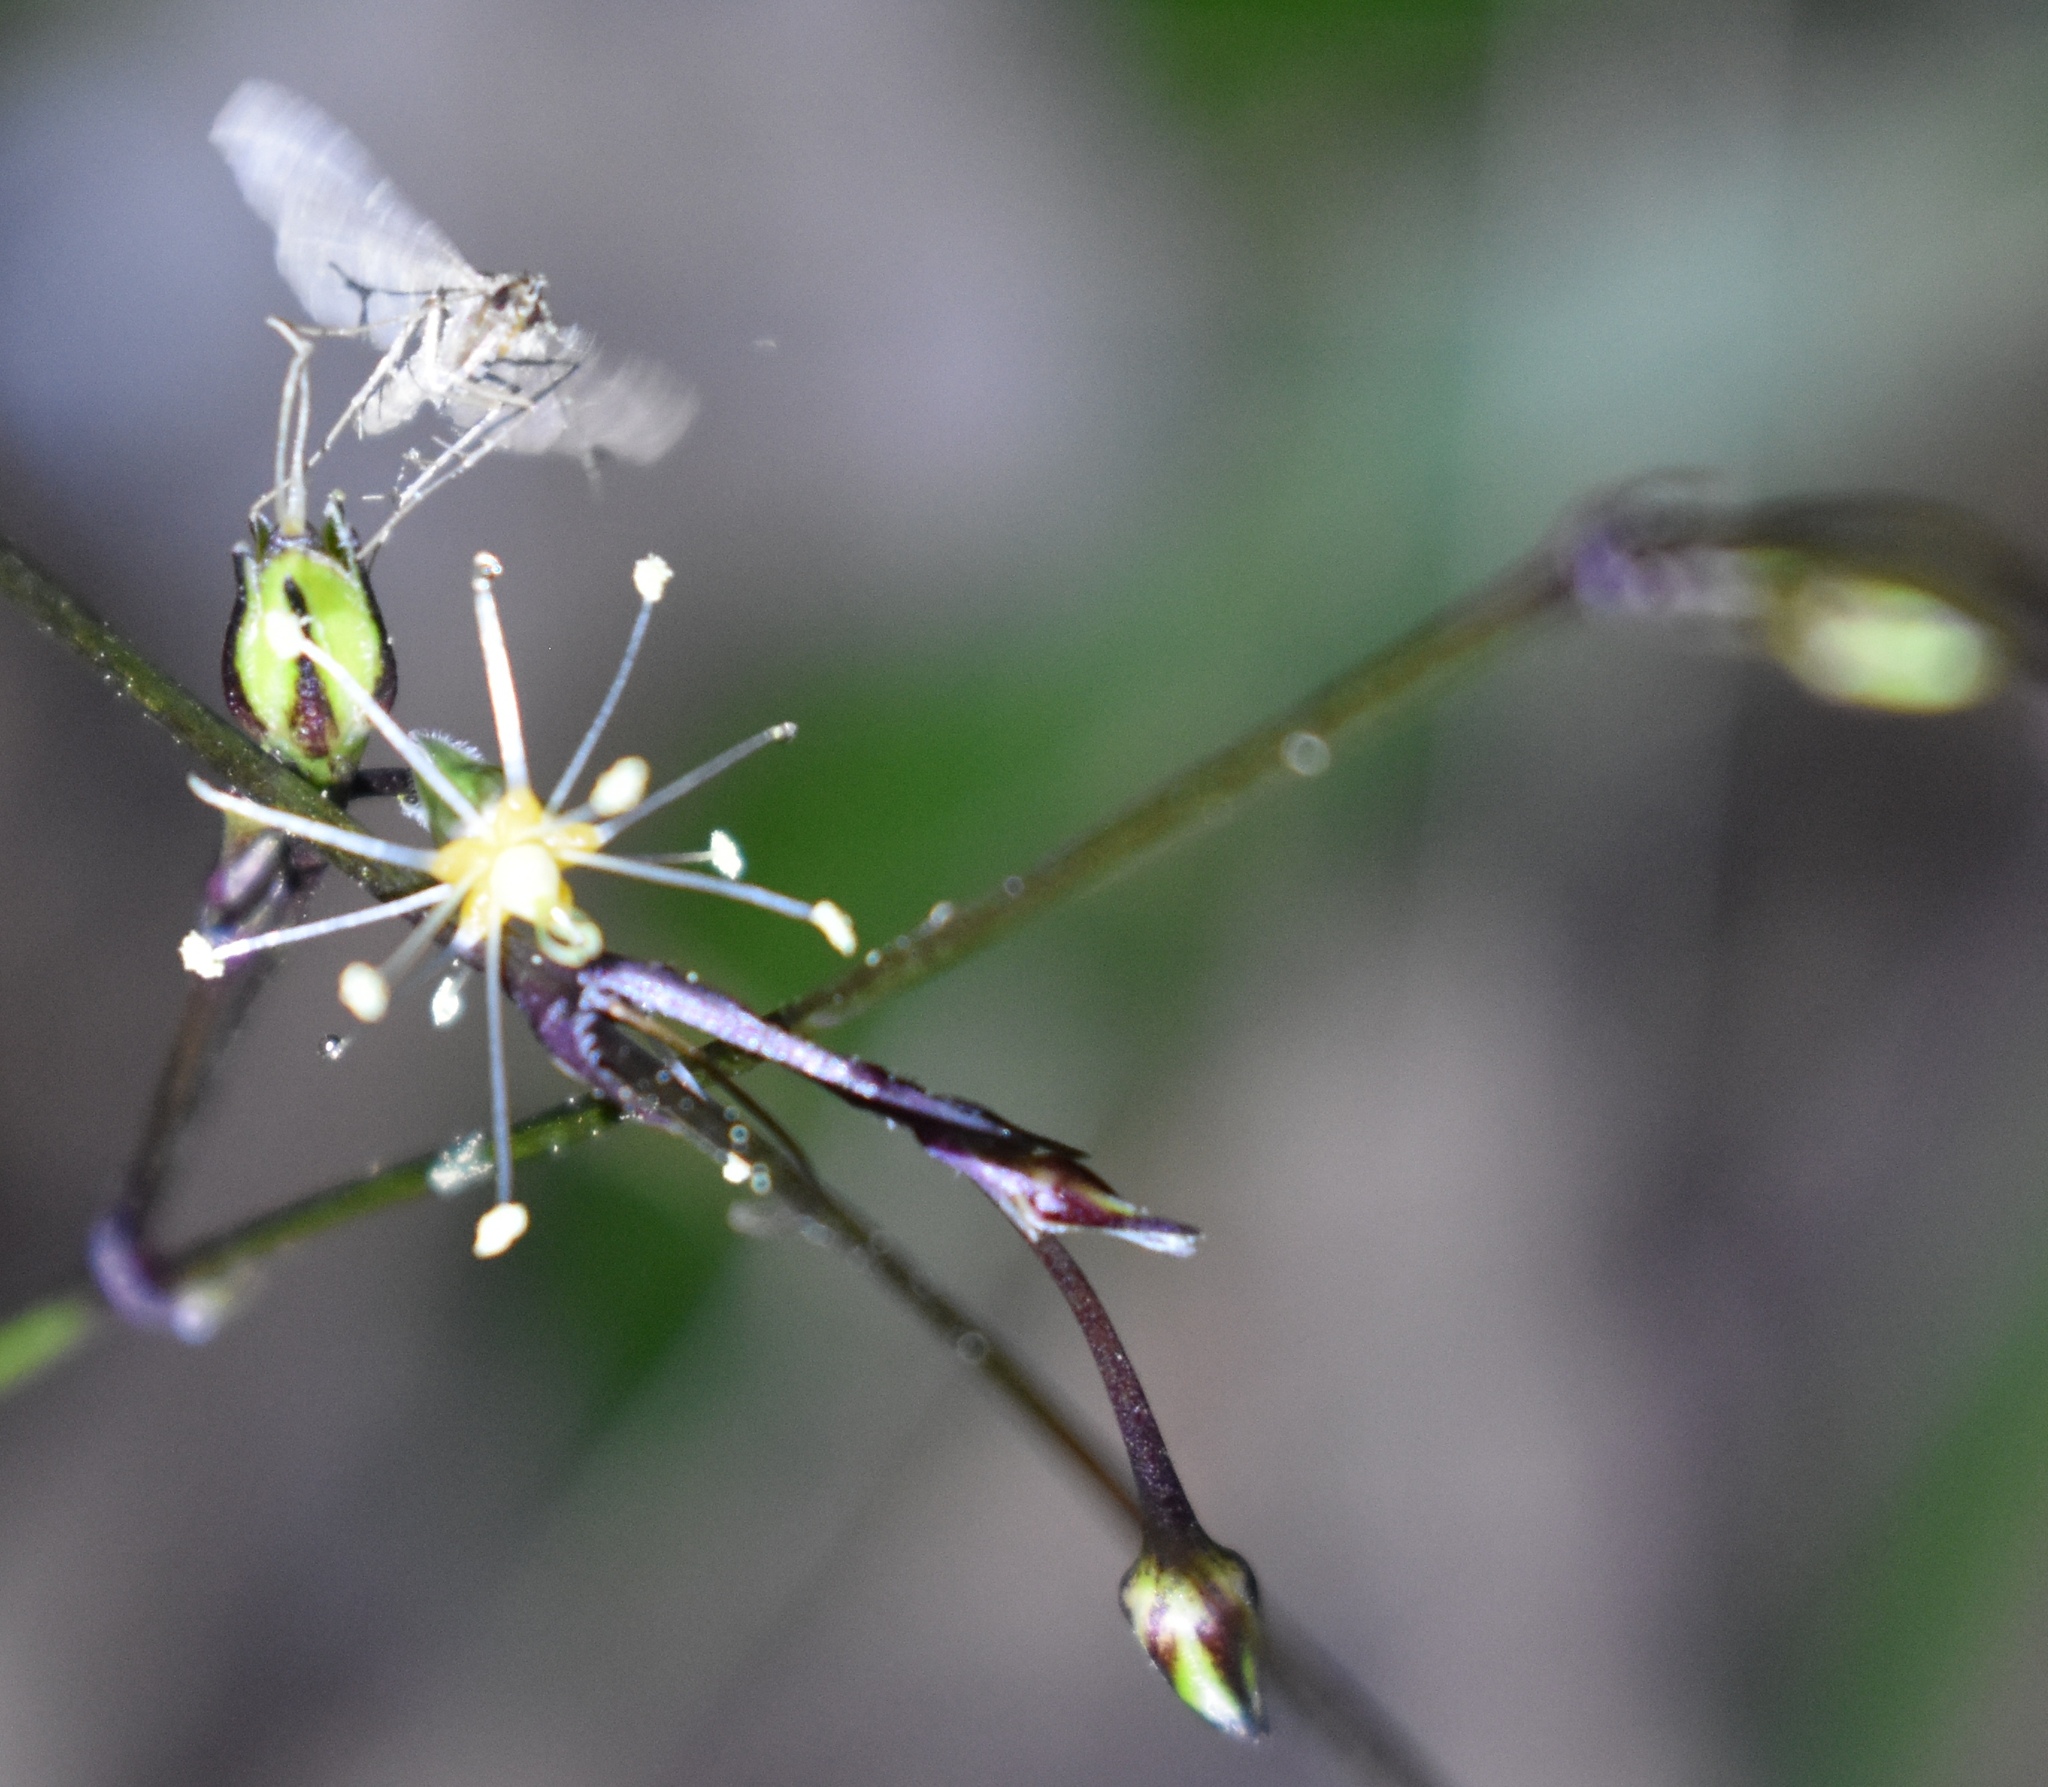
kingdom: Animalia
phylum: Arthropoda
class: Insecta
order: Lepidoptera
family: Erebidae
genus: Pseudoschrankia
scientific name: Pseudoschrankia brevipalpis
